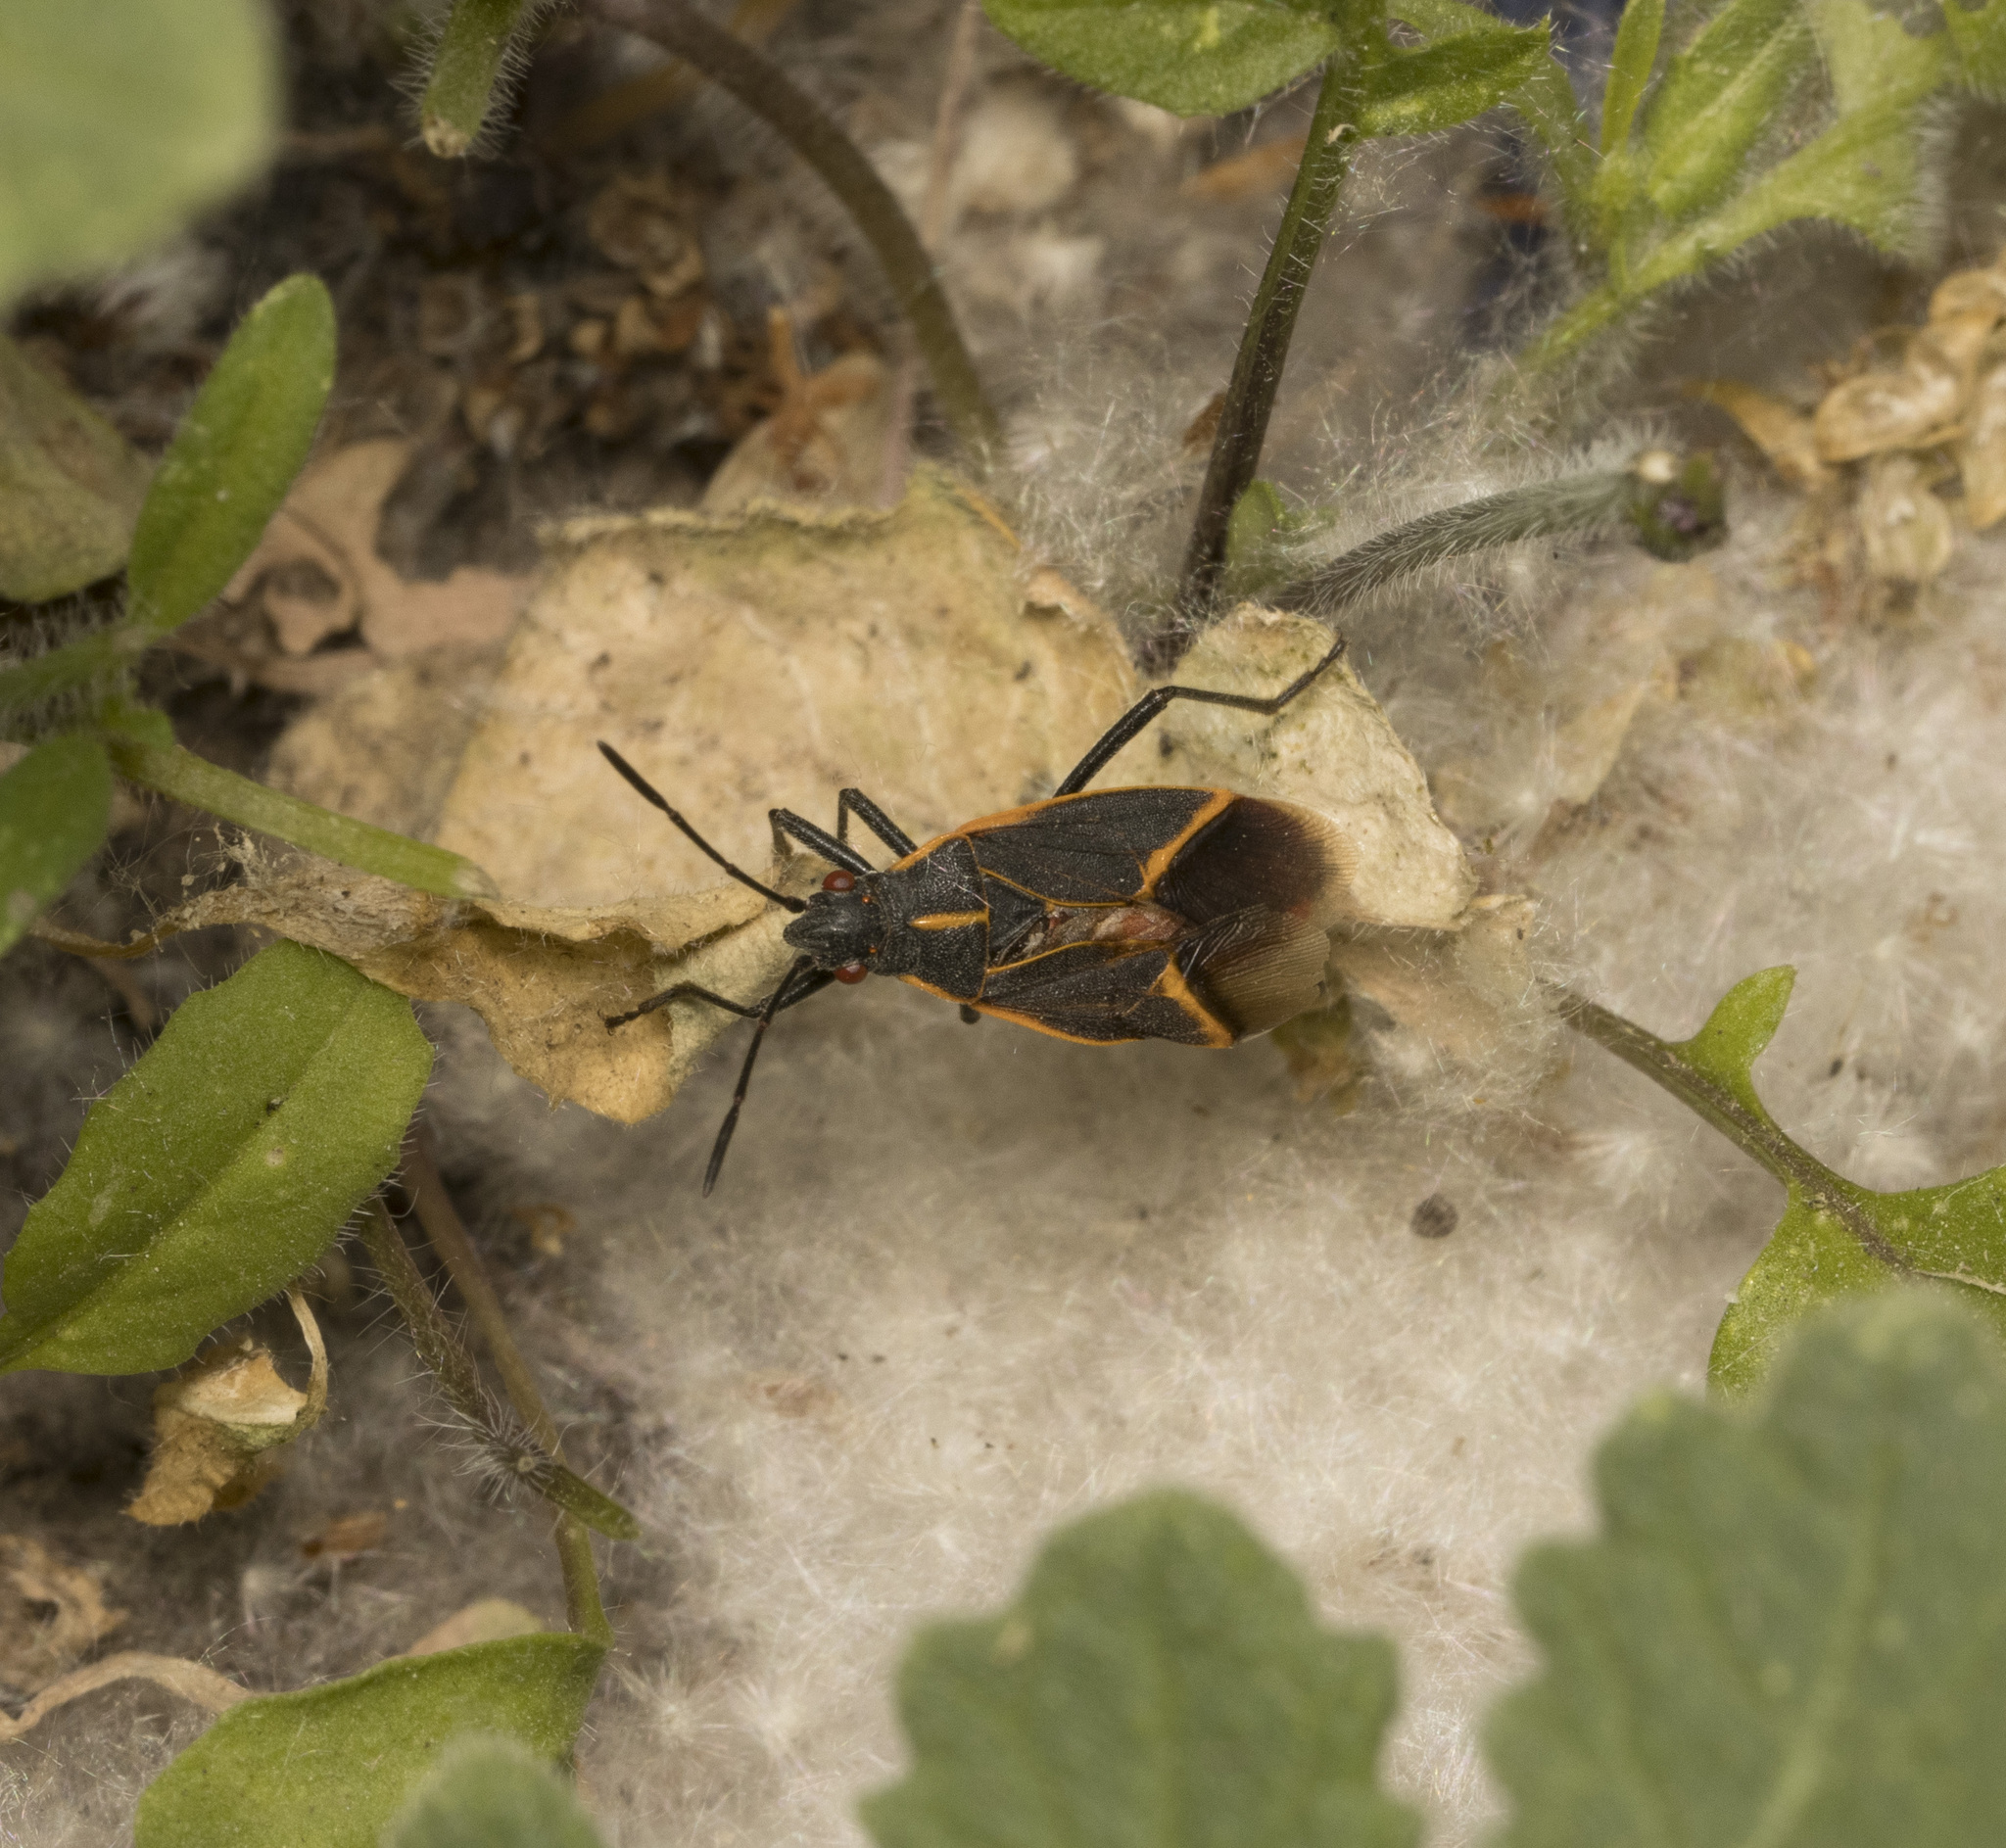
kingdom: Animalia
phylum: Arthropoda
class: Insecta
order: Hemiptera
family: Rhopalidae
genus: Boisea
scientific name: Boisea trivittata
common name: Boxelder bug
